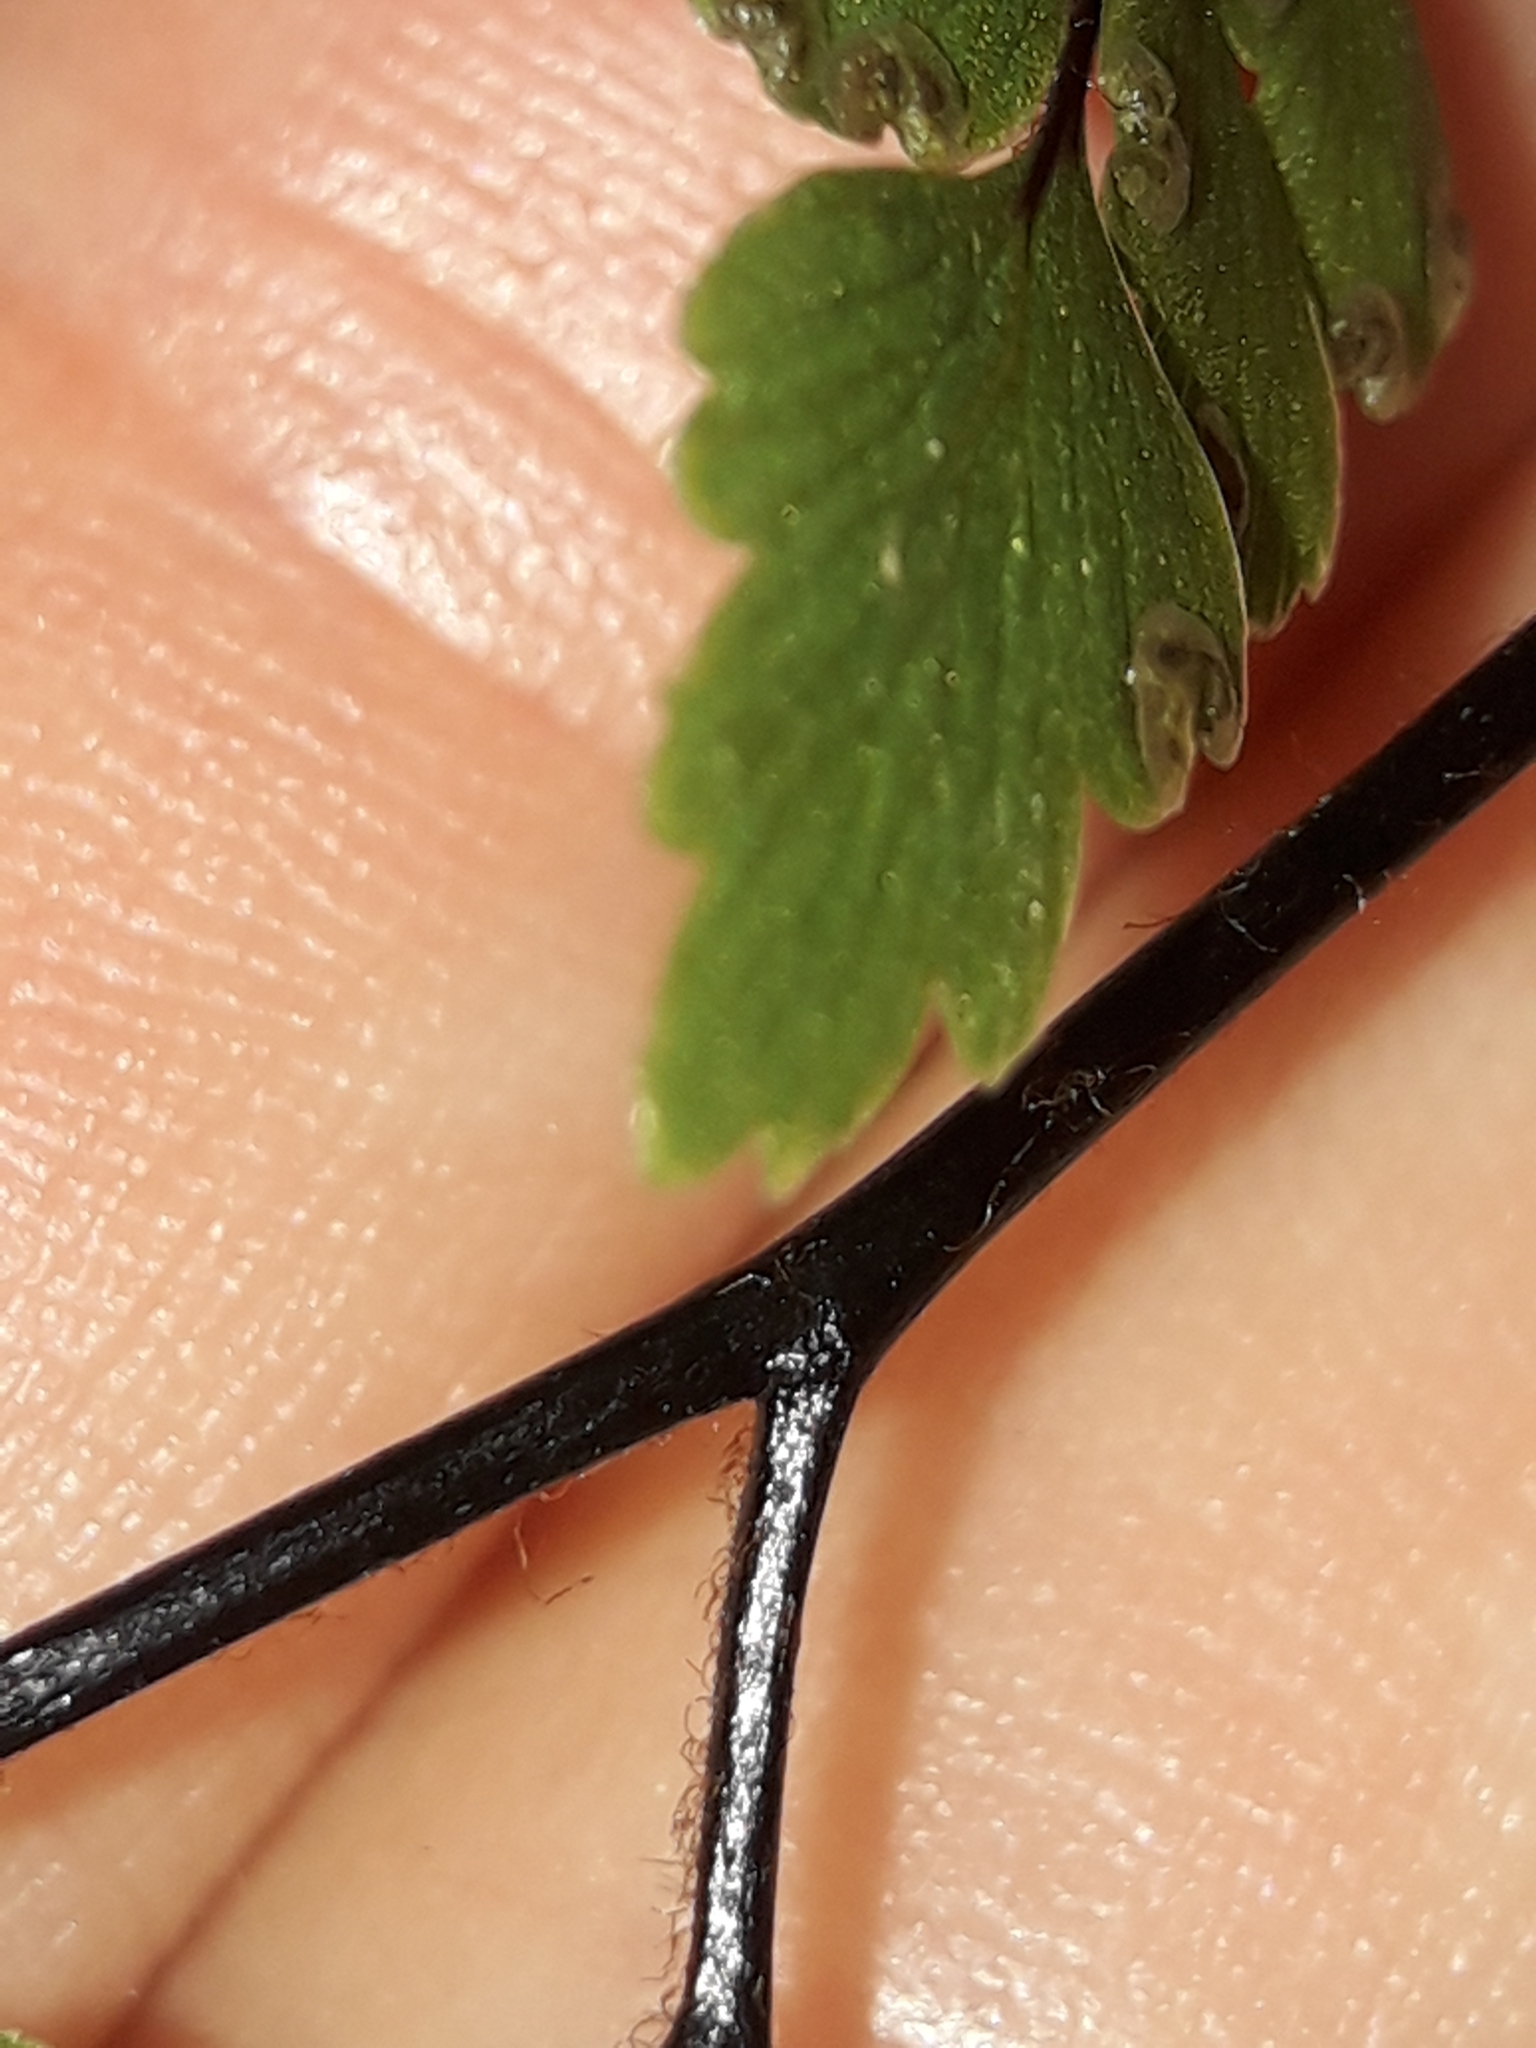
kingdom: Plantae
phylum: Tracheophyta
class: Polypodiopsida
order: Polypodiales
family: Pteridaceae
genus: Adiantum
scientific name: Adiantum fulvum
